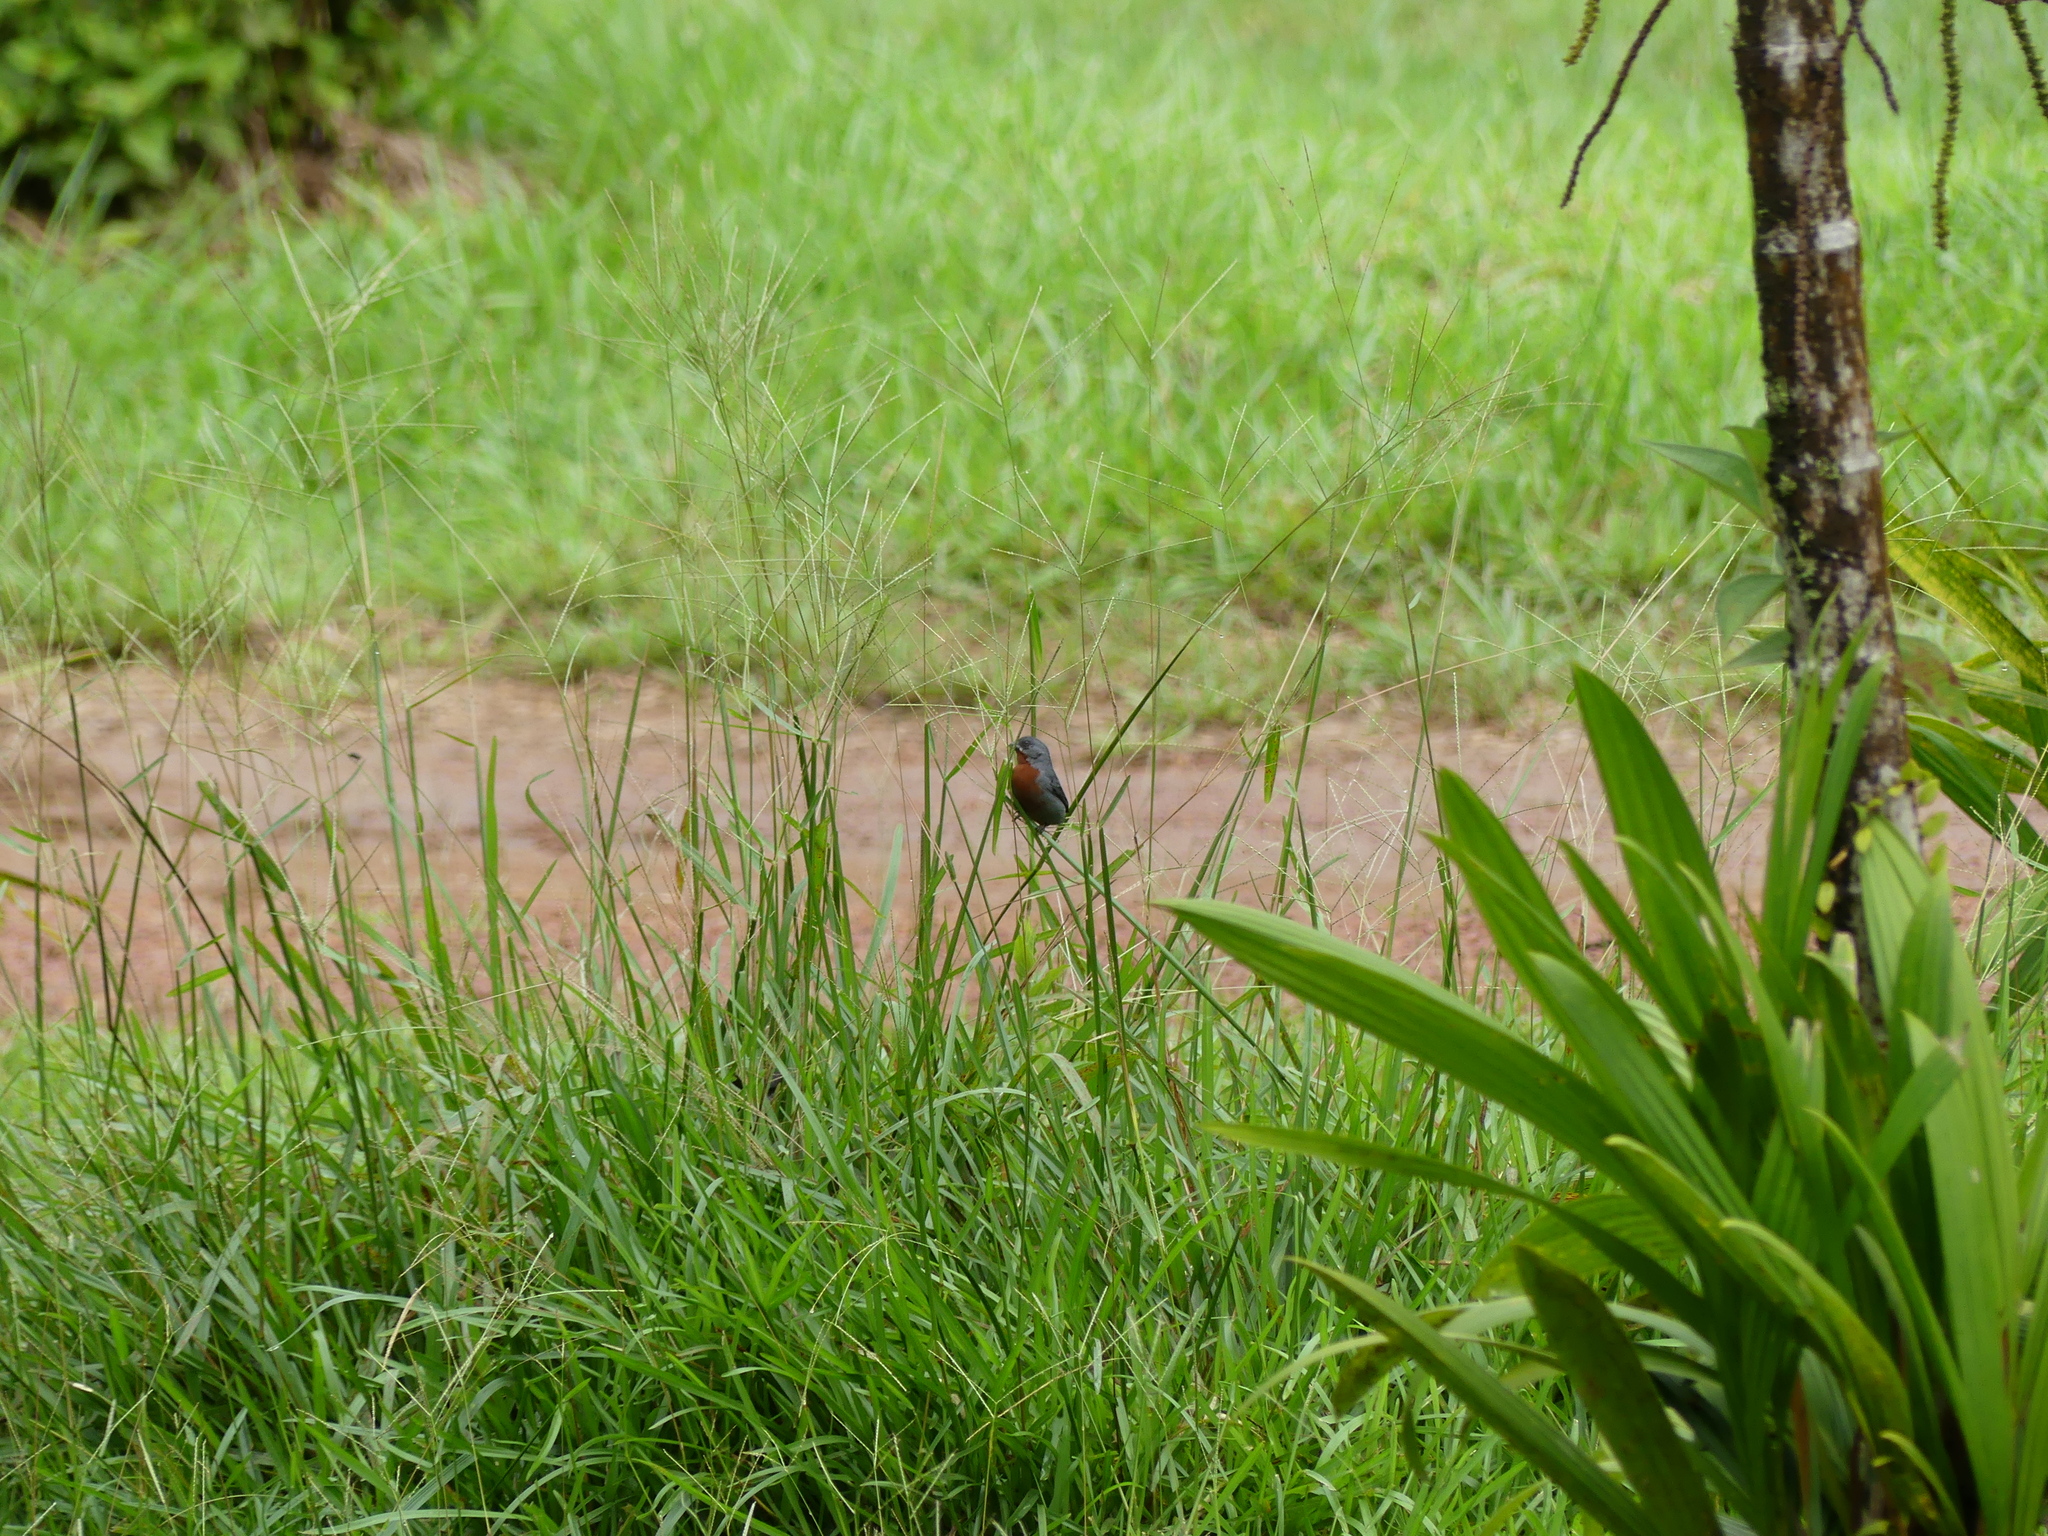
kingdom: Animalia
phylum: Chordata
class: Aves
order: Passeriformes
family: Thraupidae
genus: Sporophila
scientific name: Sporophila castaneiventris
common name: Chestnut-bellied seedeater
